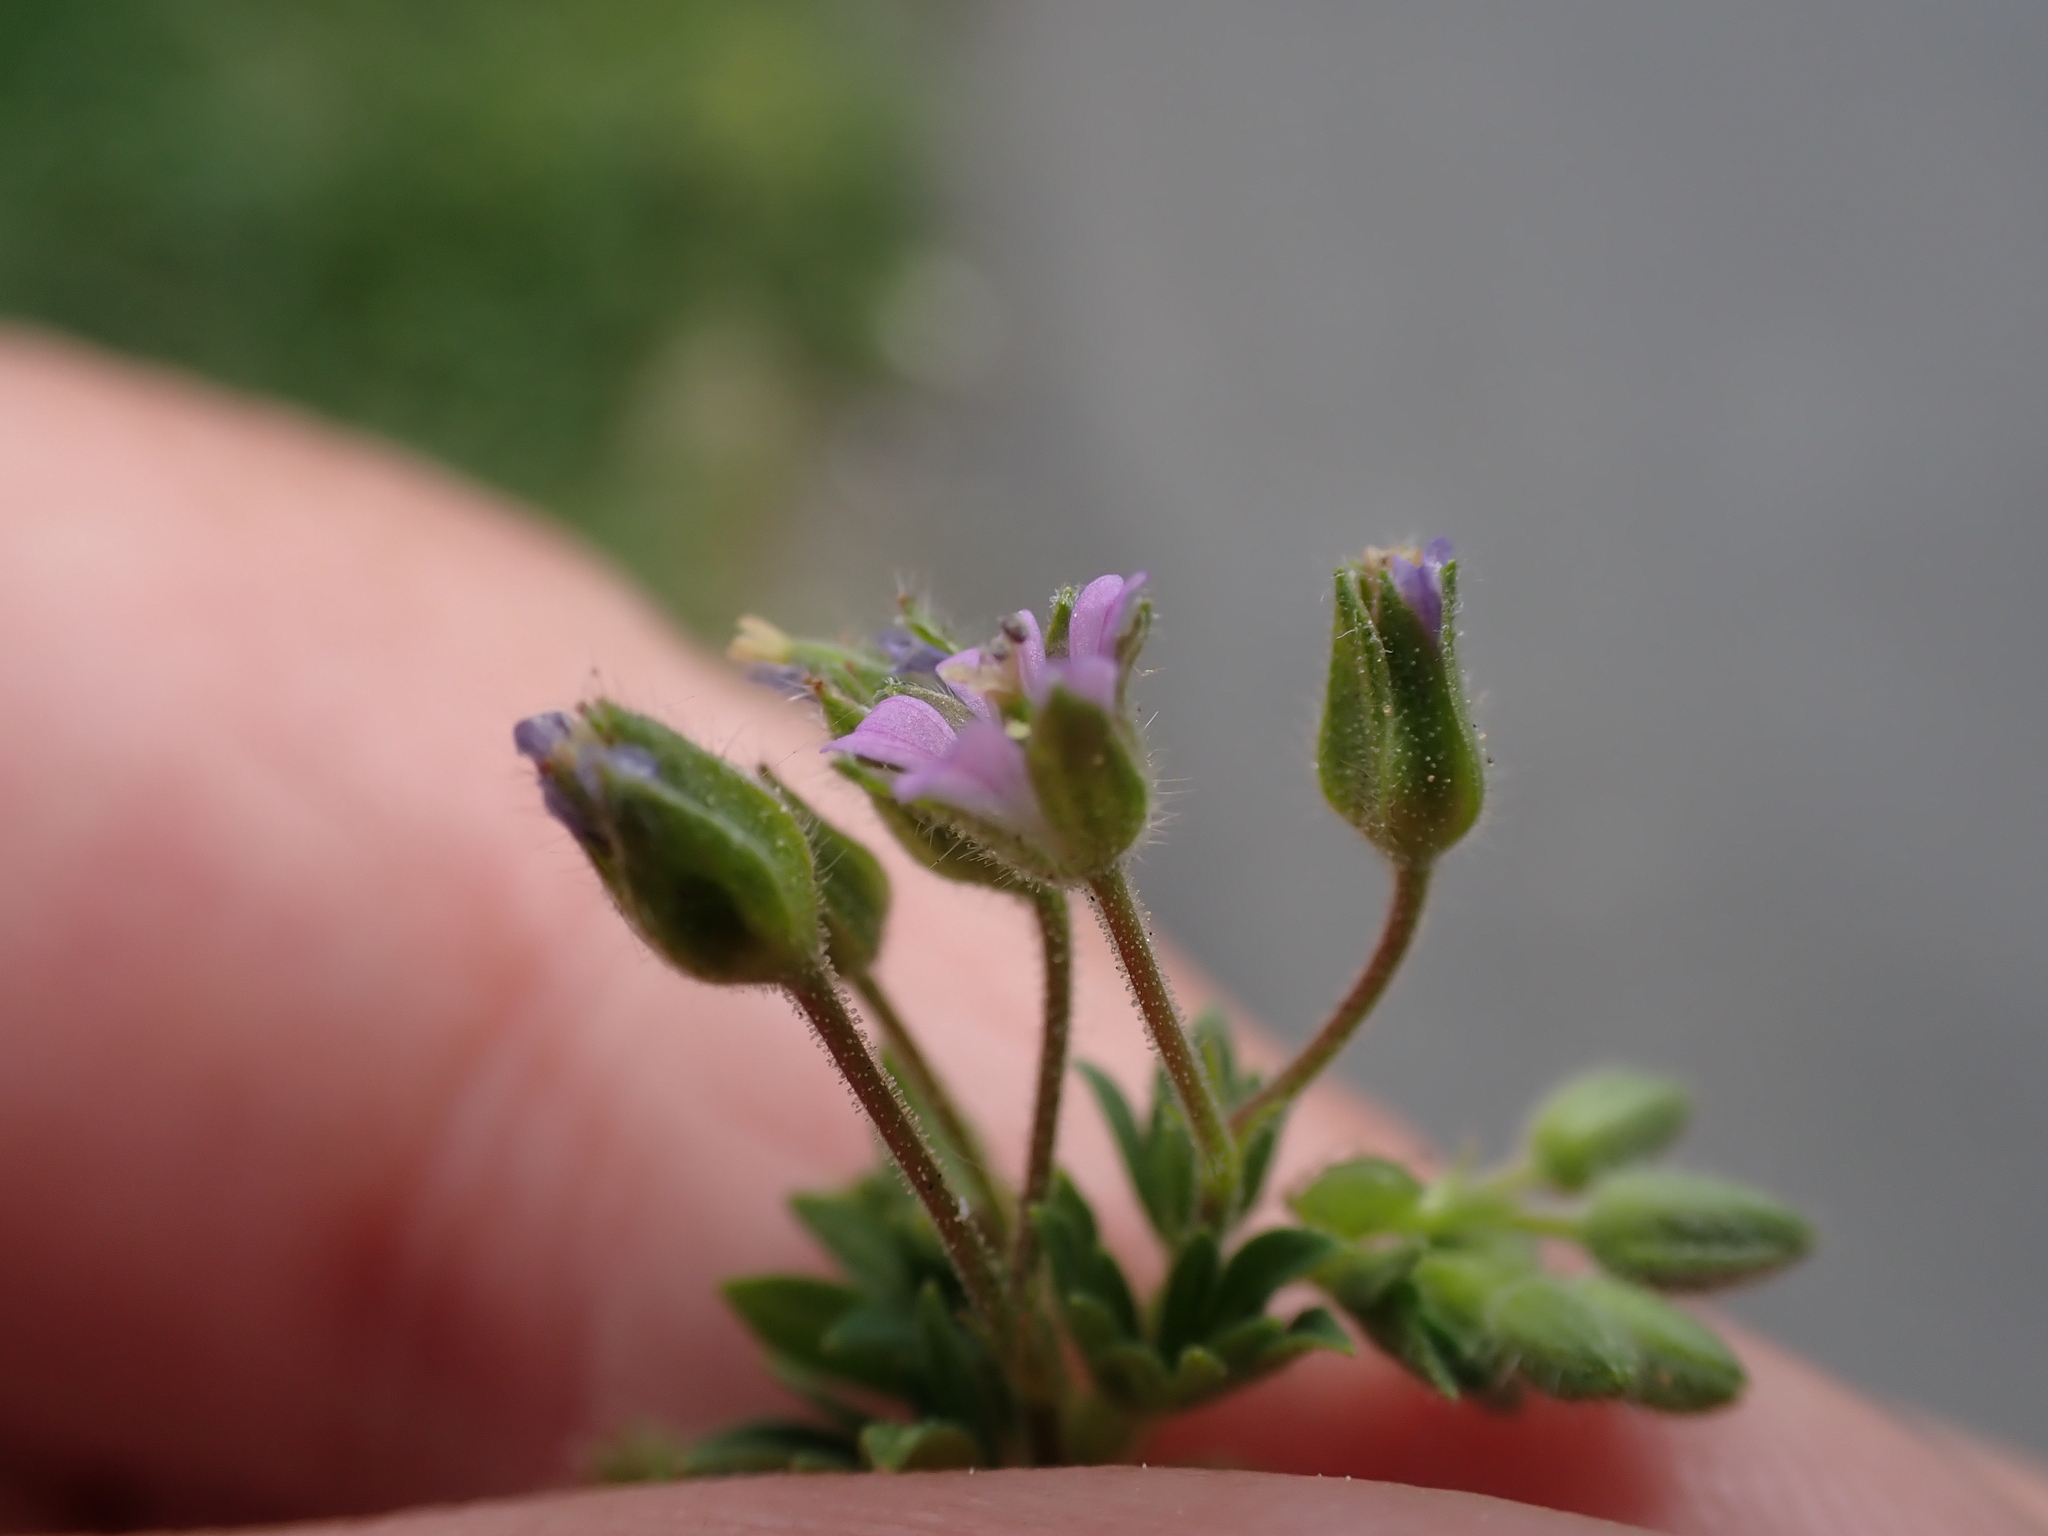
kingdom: Plantae
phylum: Tracheophyta
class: Magnoliopsida
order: Geraniales
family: Geraniaceae
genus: Geranium
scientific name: Geranium pusillum
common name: Small geranium
